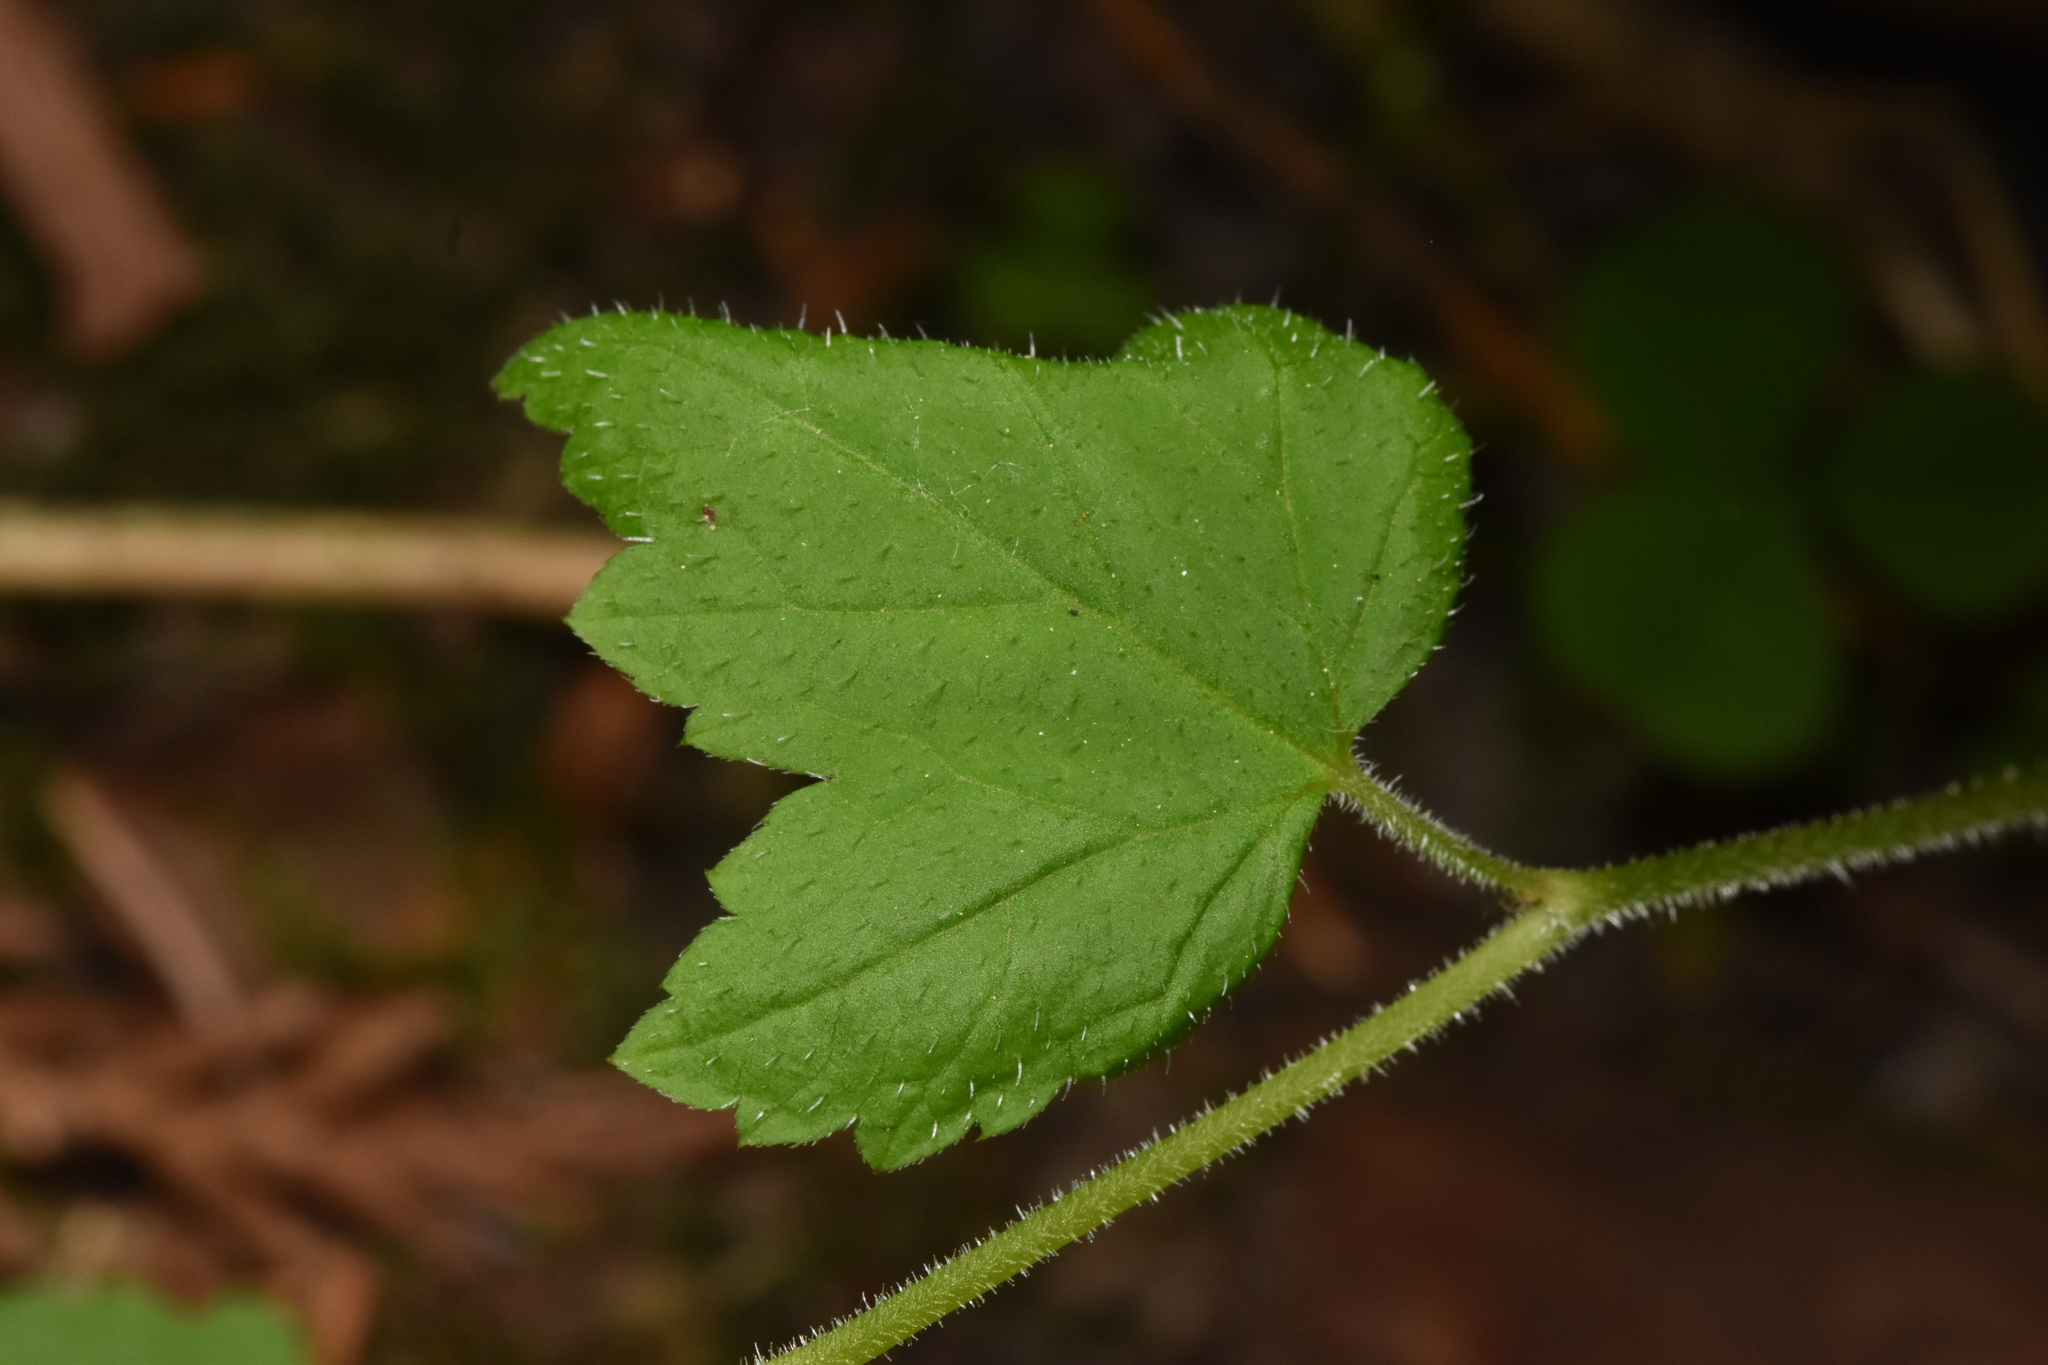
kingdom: Plantae
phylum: Tracheophyta
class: Magnoliopsida
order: Saxifragales
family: Saxifragaceae
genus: Tiarella
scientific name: Tiarella trifoliata
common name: Sugar-scoop
